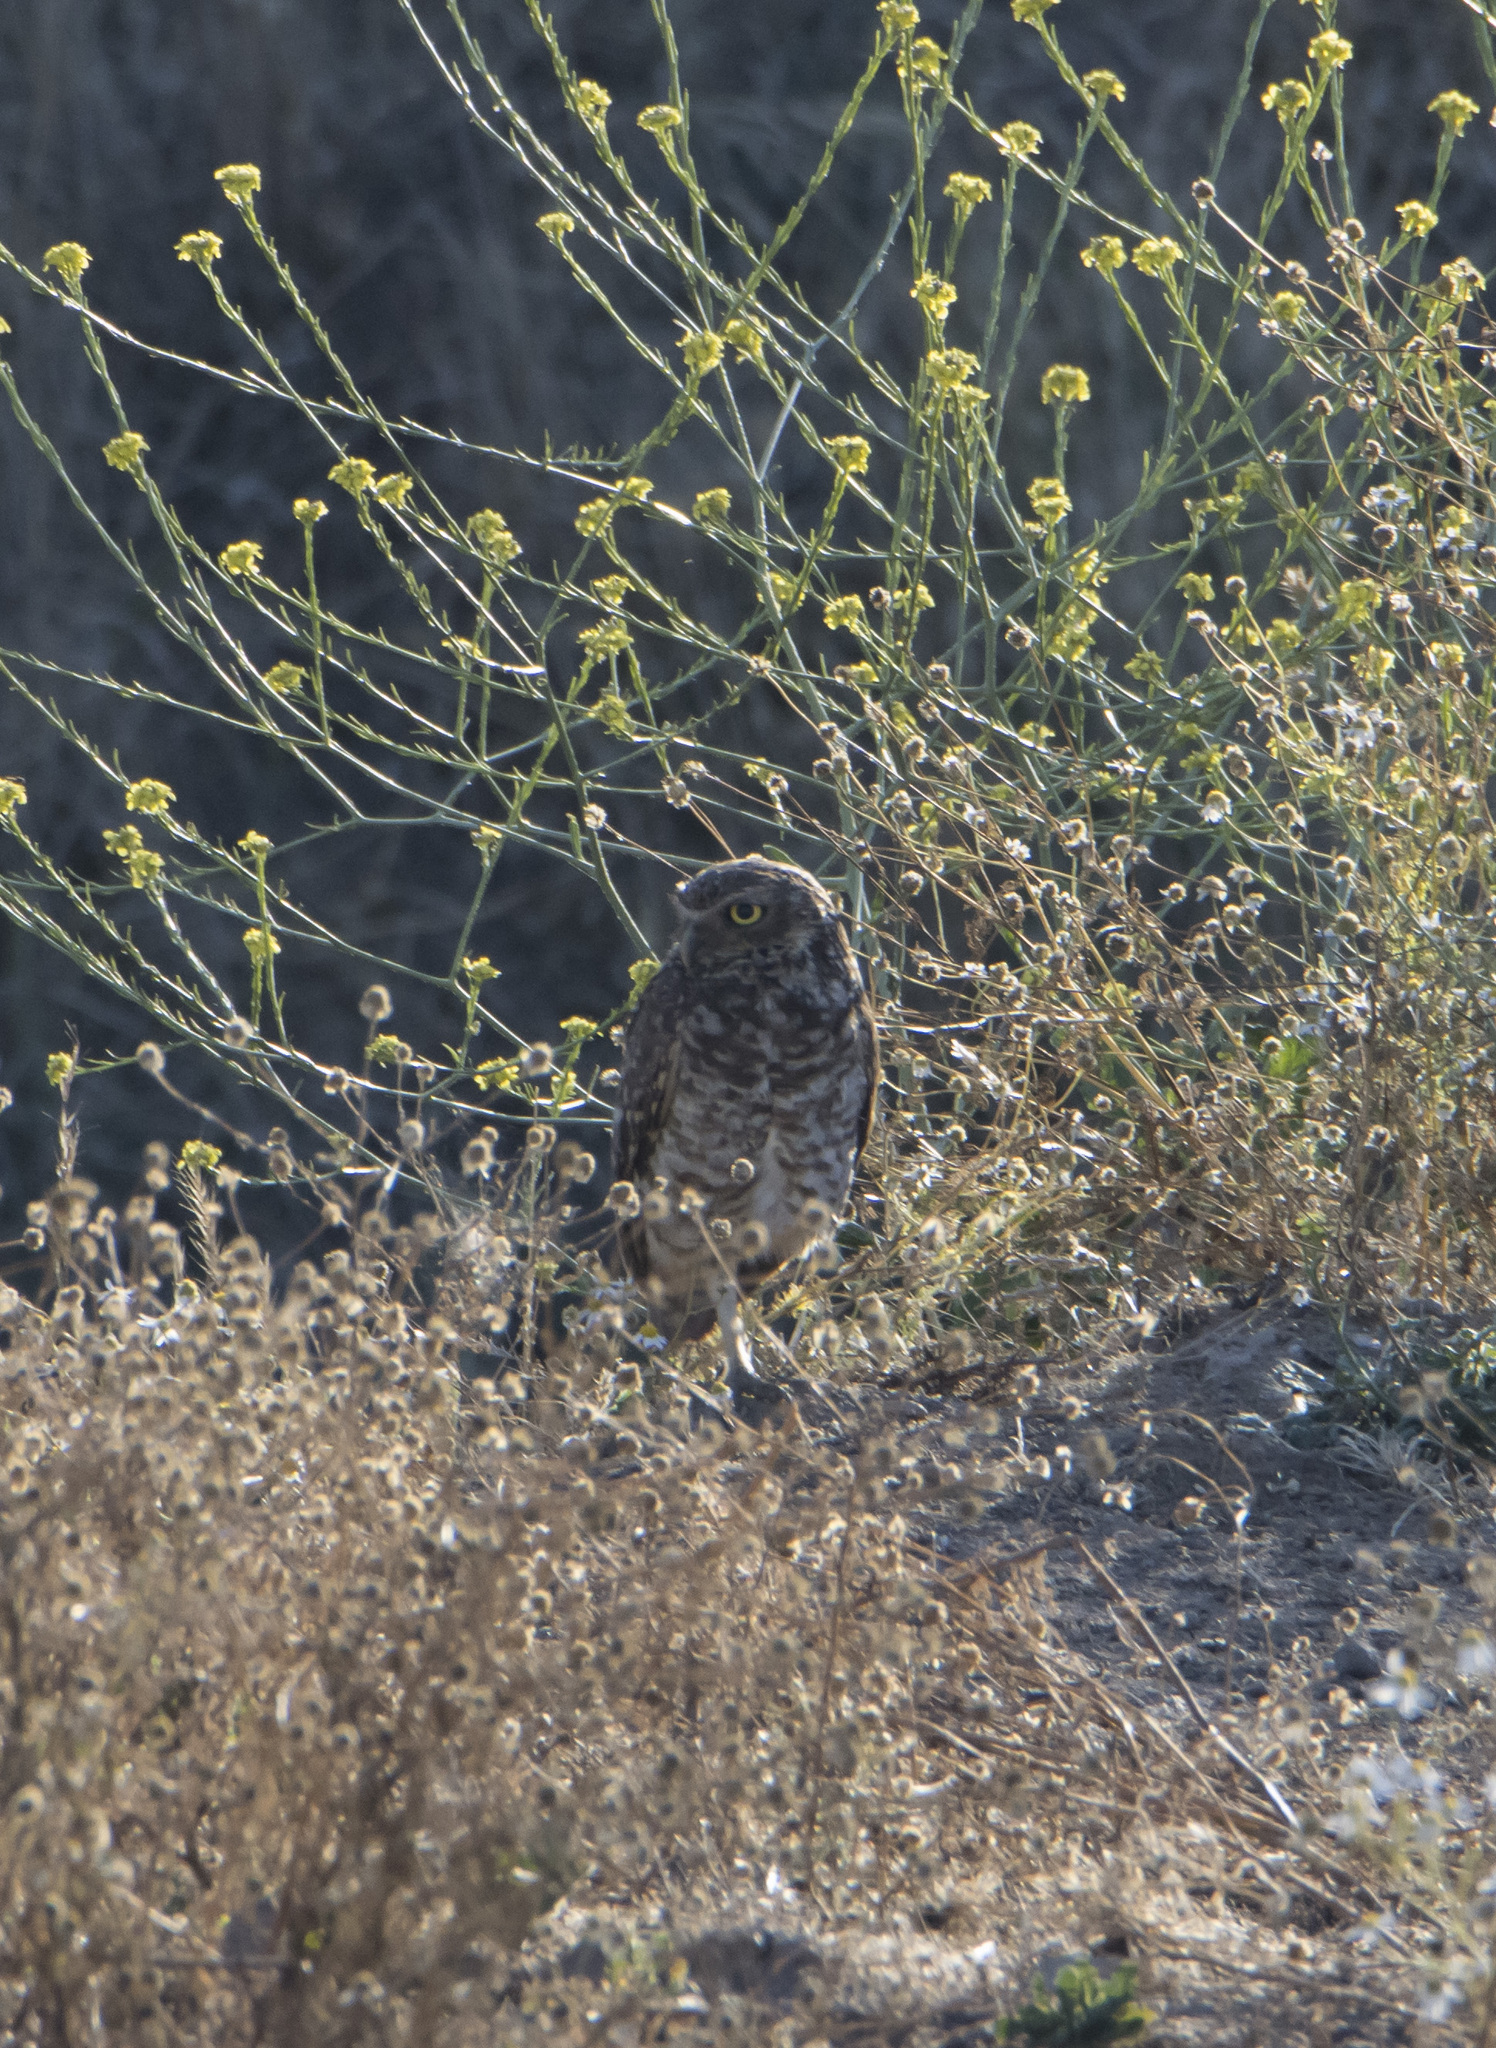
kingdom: Animalia
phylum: Chordata
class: Aves
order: Strigiformes
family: Strigidae
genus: Athene
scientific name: Athene cunicularia
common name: Burrowing owl
